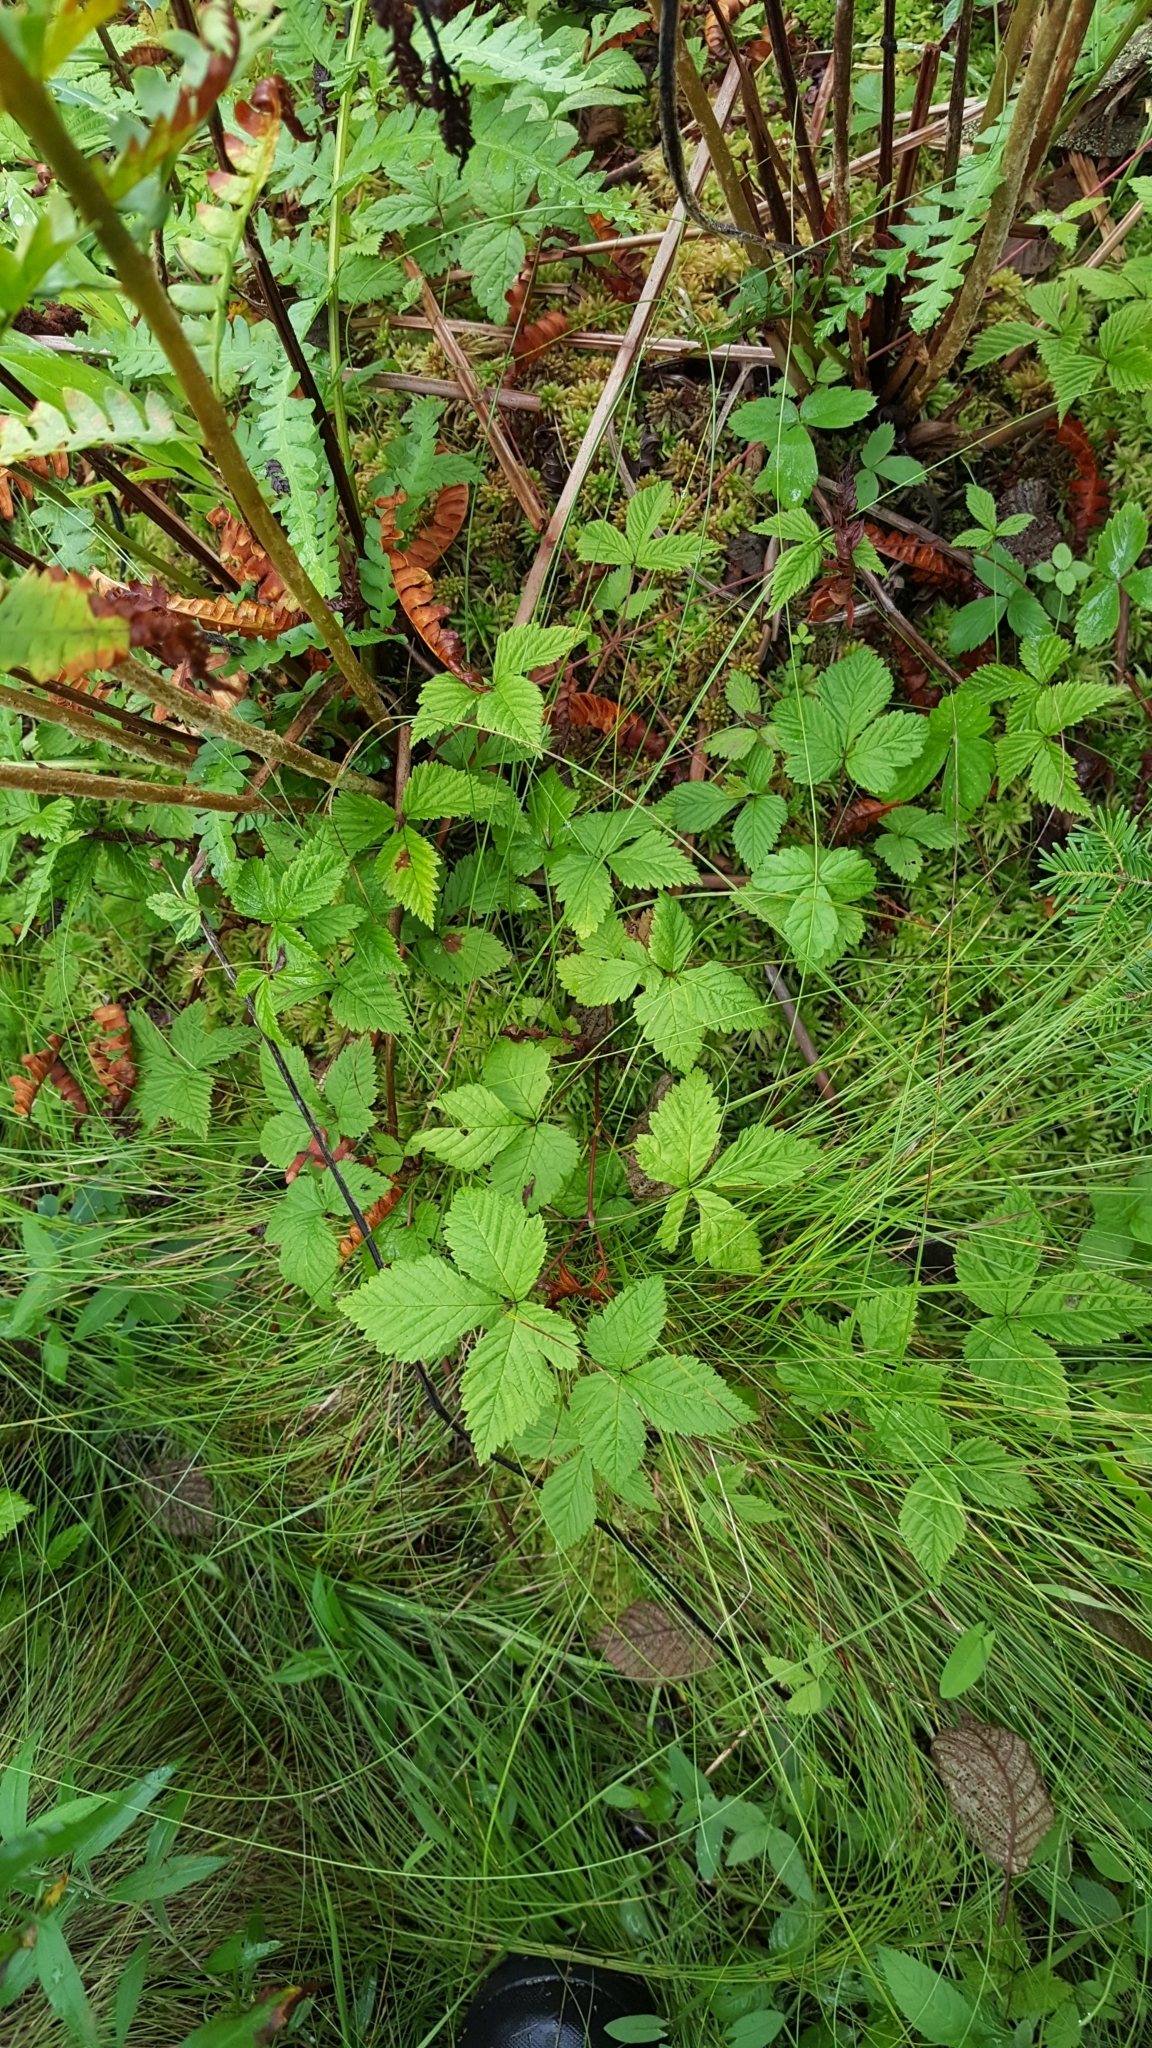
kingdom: Plantae
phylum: Tracheophyta
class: Magnoliopsida
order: Rosales
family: Rosaceae
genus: Rubus
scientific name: Rubus pubescens
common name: Dwarf raspberry
